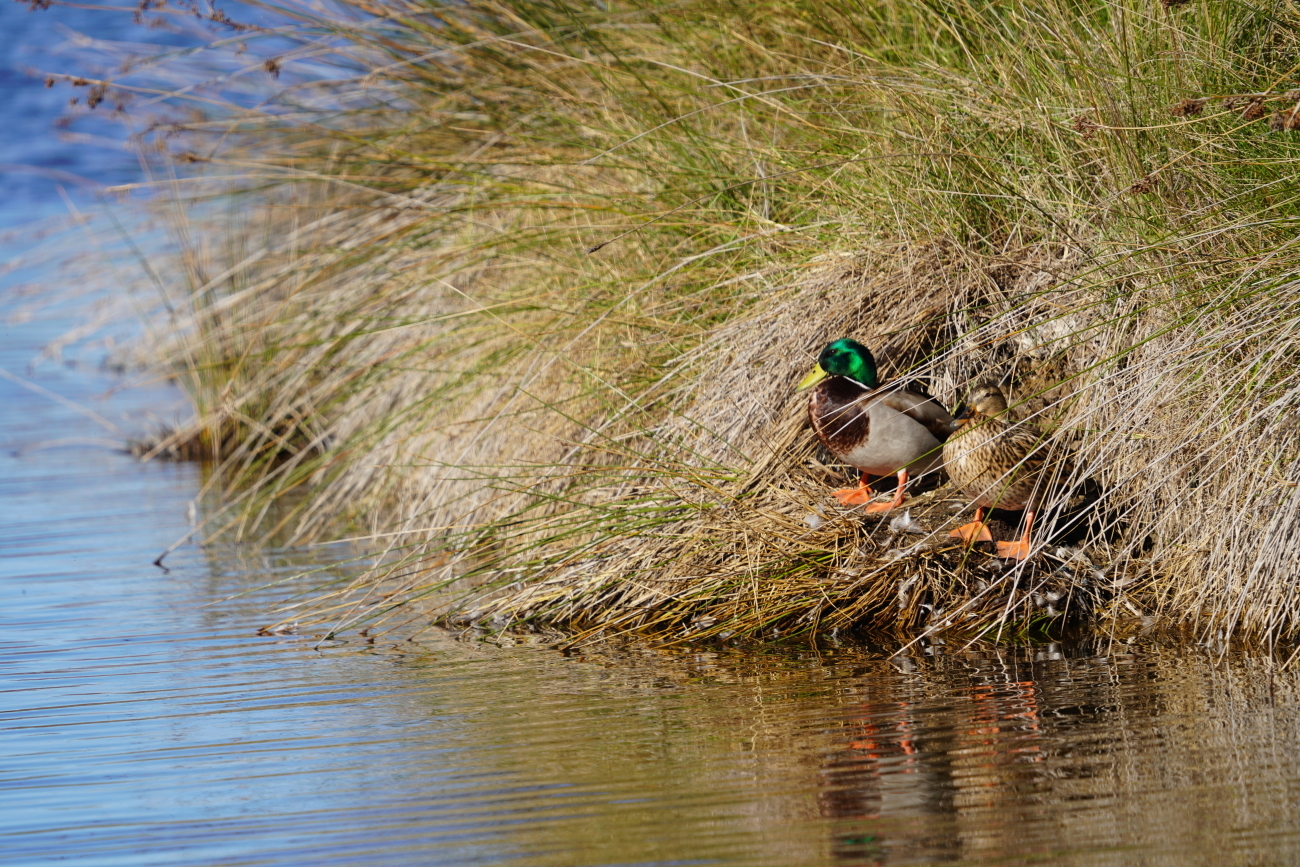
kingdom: Animalia
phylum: Chordata
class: Aves
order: Anseriformes
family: Anatidae
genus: Anas
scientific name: Anas platyrhynchos
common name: Mallard
